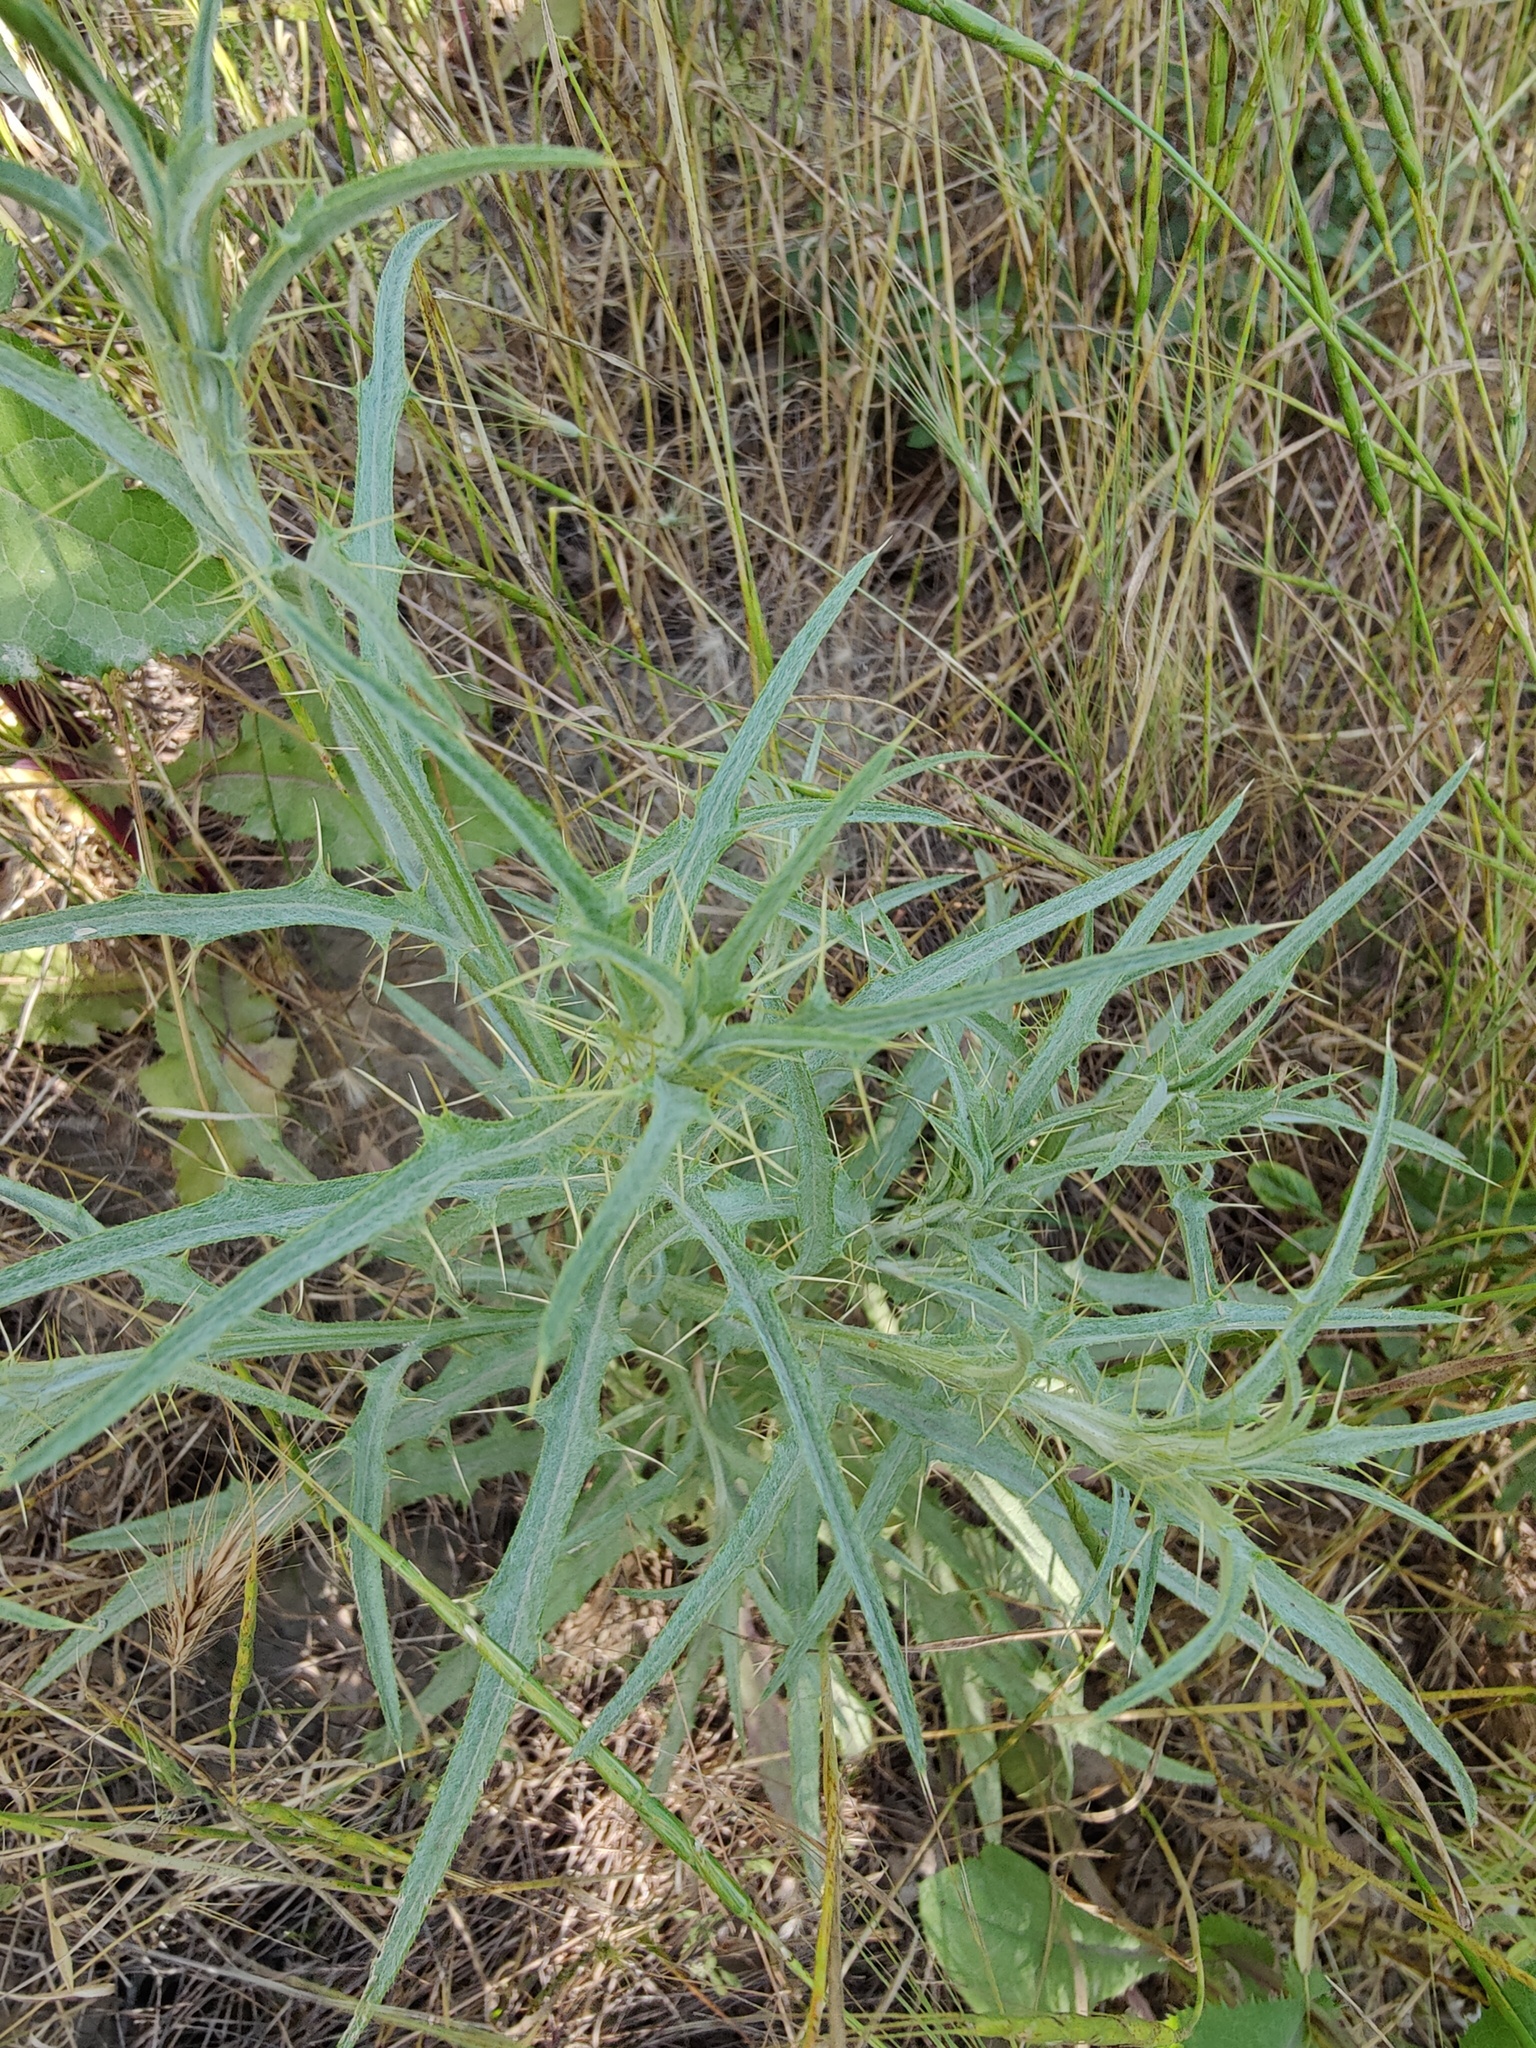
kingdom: Plantae
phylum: Tracheophyta
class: Magnoliopsida
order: Asterales
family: Asteraceae
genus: Picnomon
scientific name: Picnomon acarna
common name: Soldier thistle
